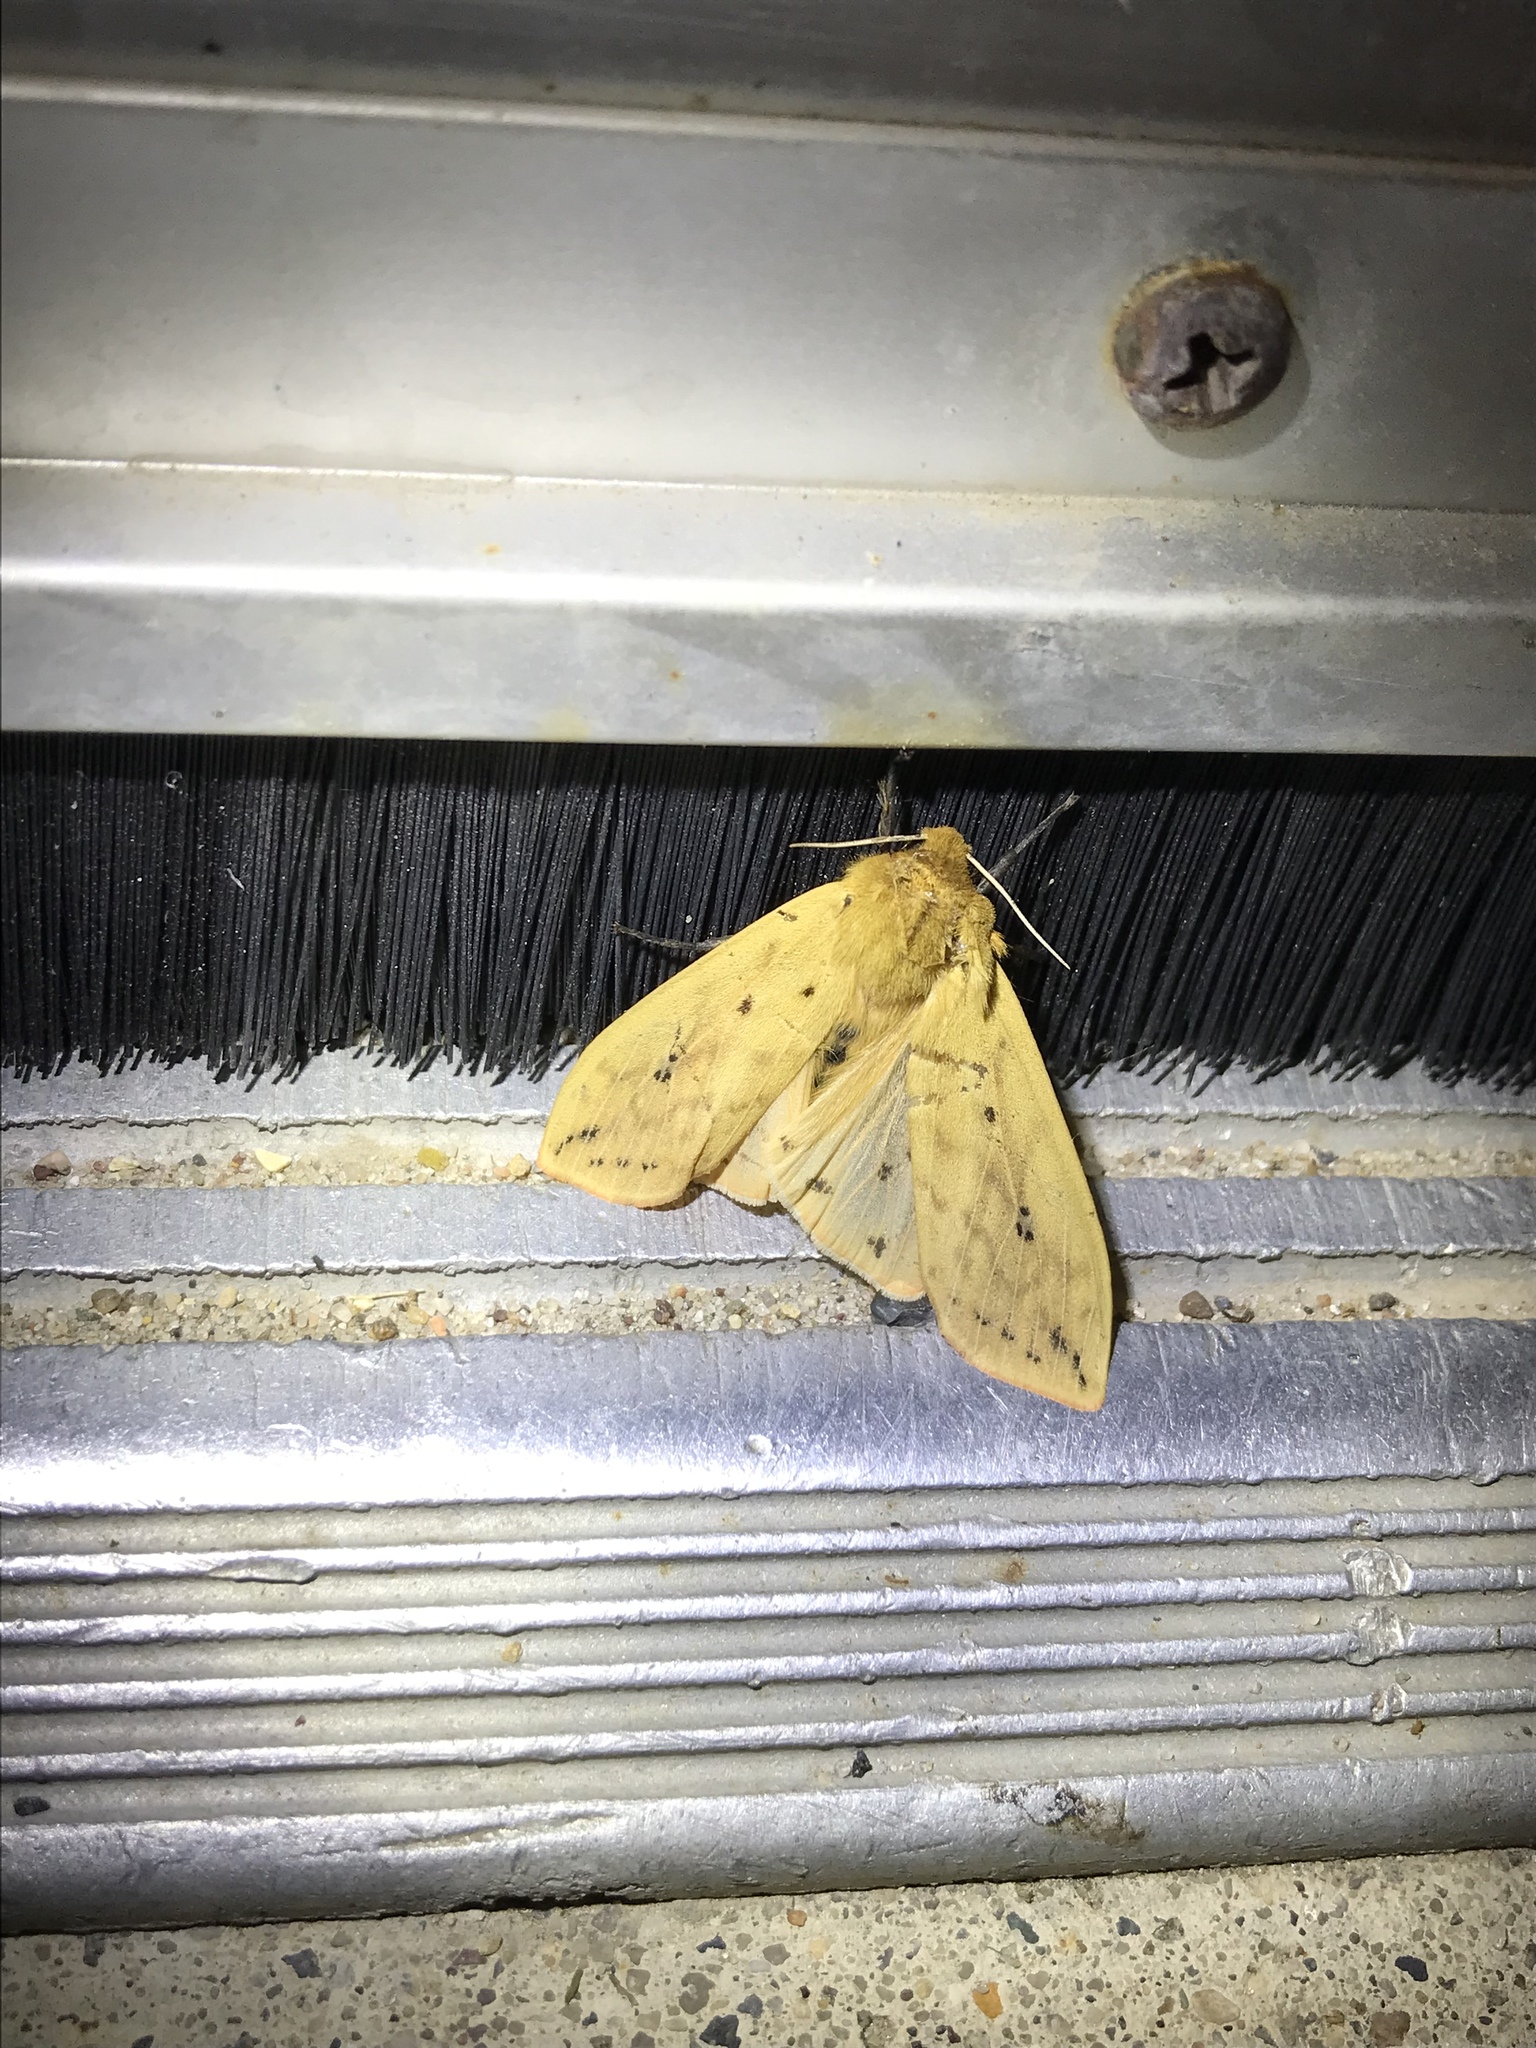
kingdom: Animalia
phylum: Arthropoda
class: Insecta
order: Lepidoptera
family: Erebidae
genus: Pyrrharctia
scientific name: Pyrrharctia isabella
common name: Isabella tiger moth
